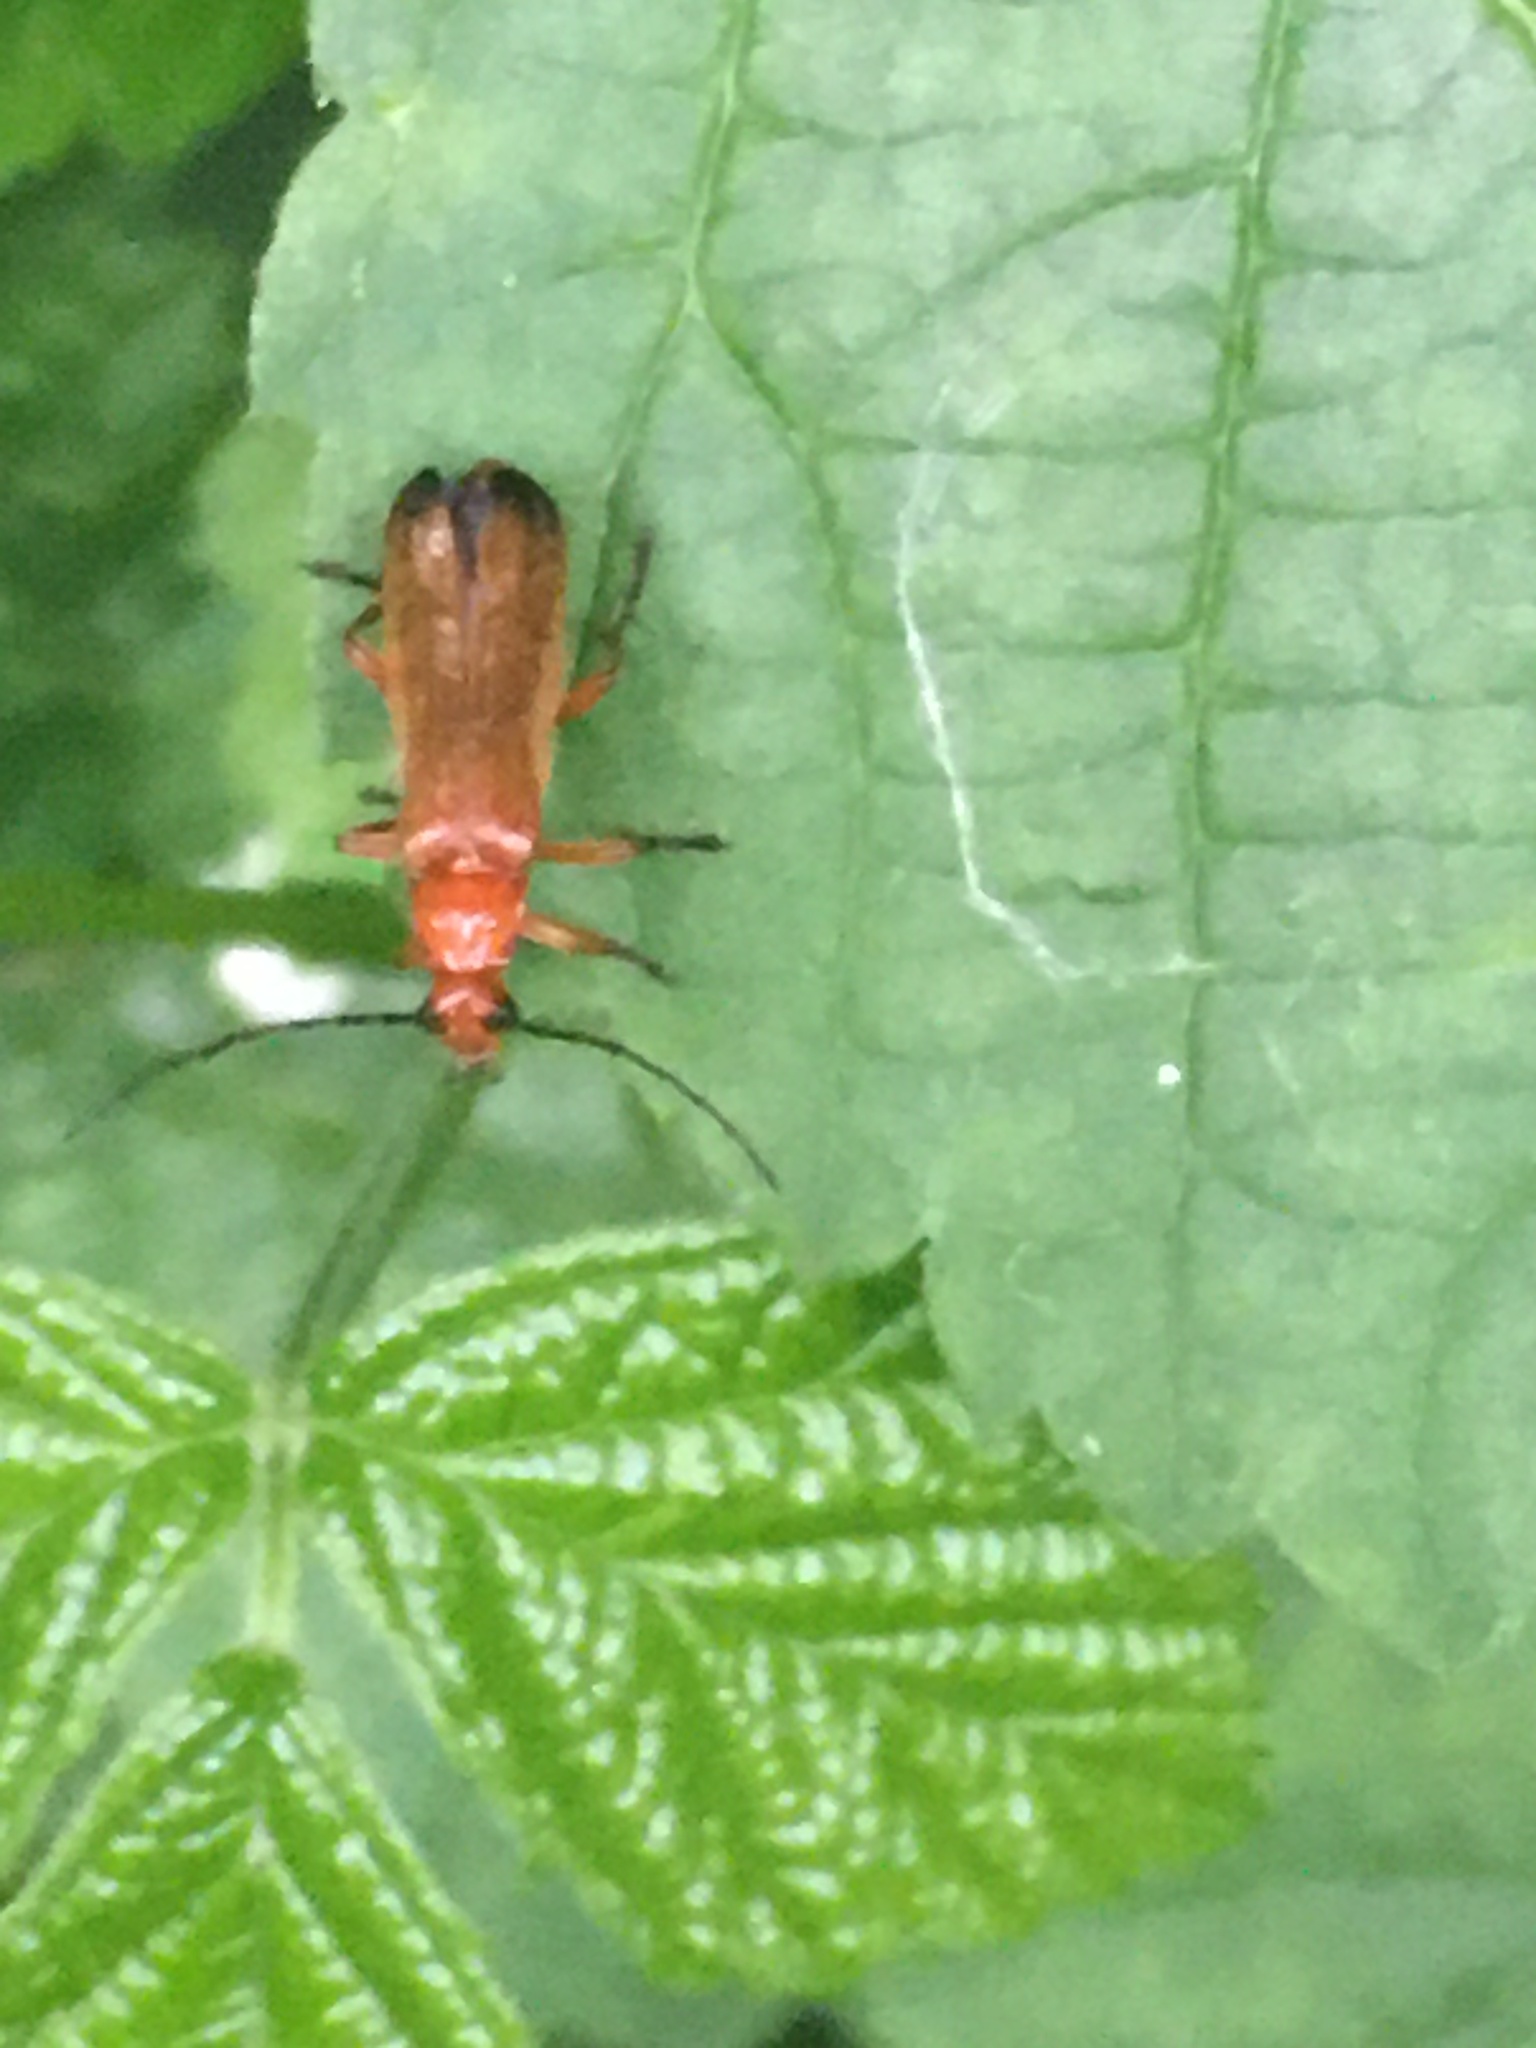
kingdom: Animalia
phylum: Arthropoda
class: Insecta
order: Coleoptera
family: Cantharidae
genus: Rhagonycha
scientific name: Rhagonycha fulva
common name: Common red soldier beetle
